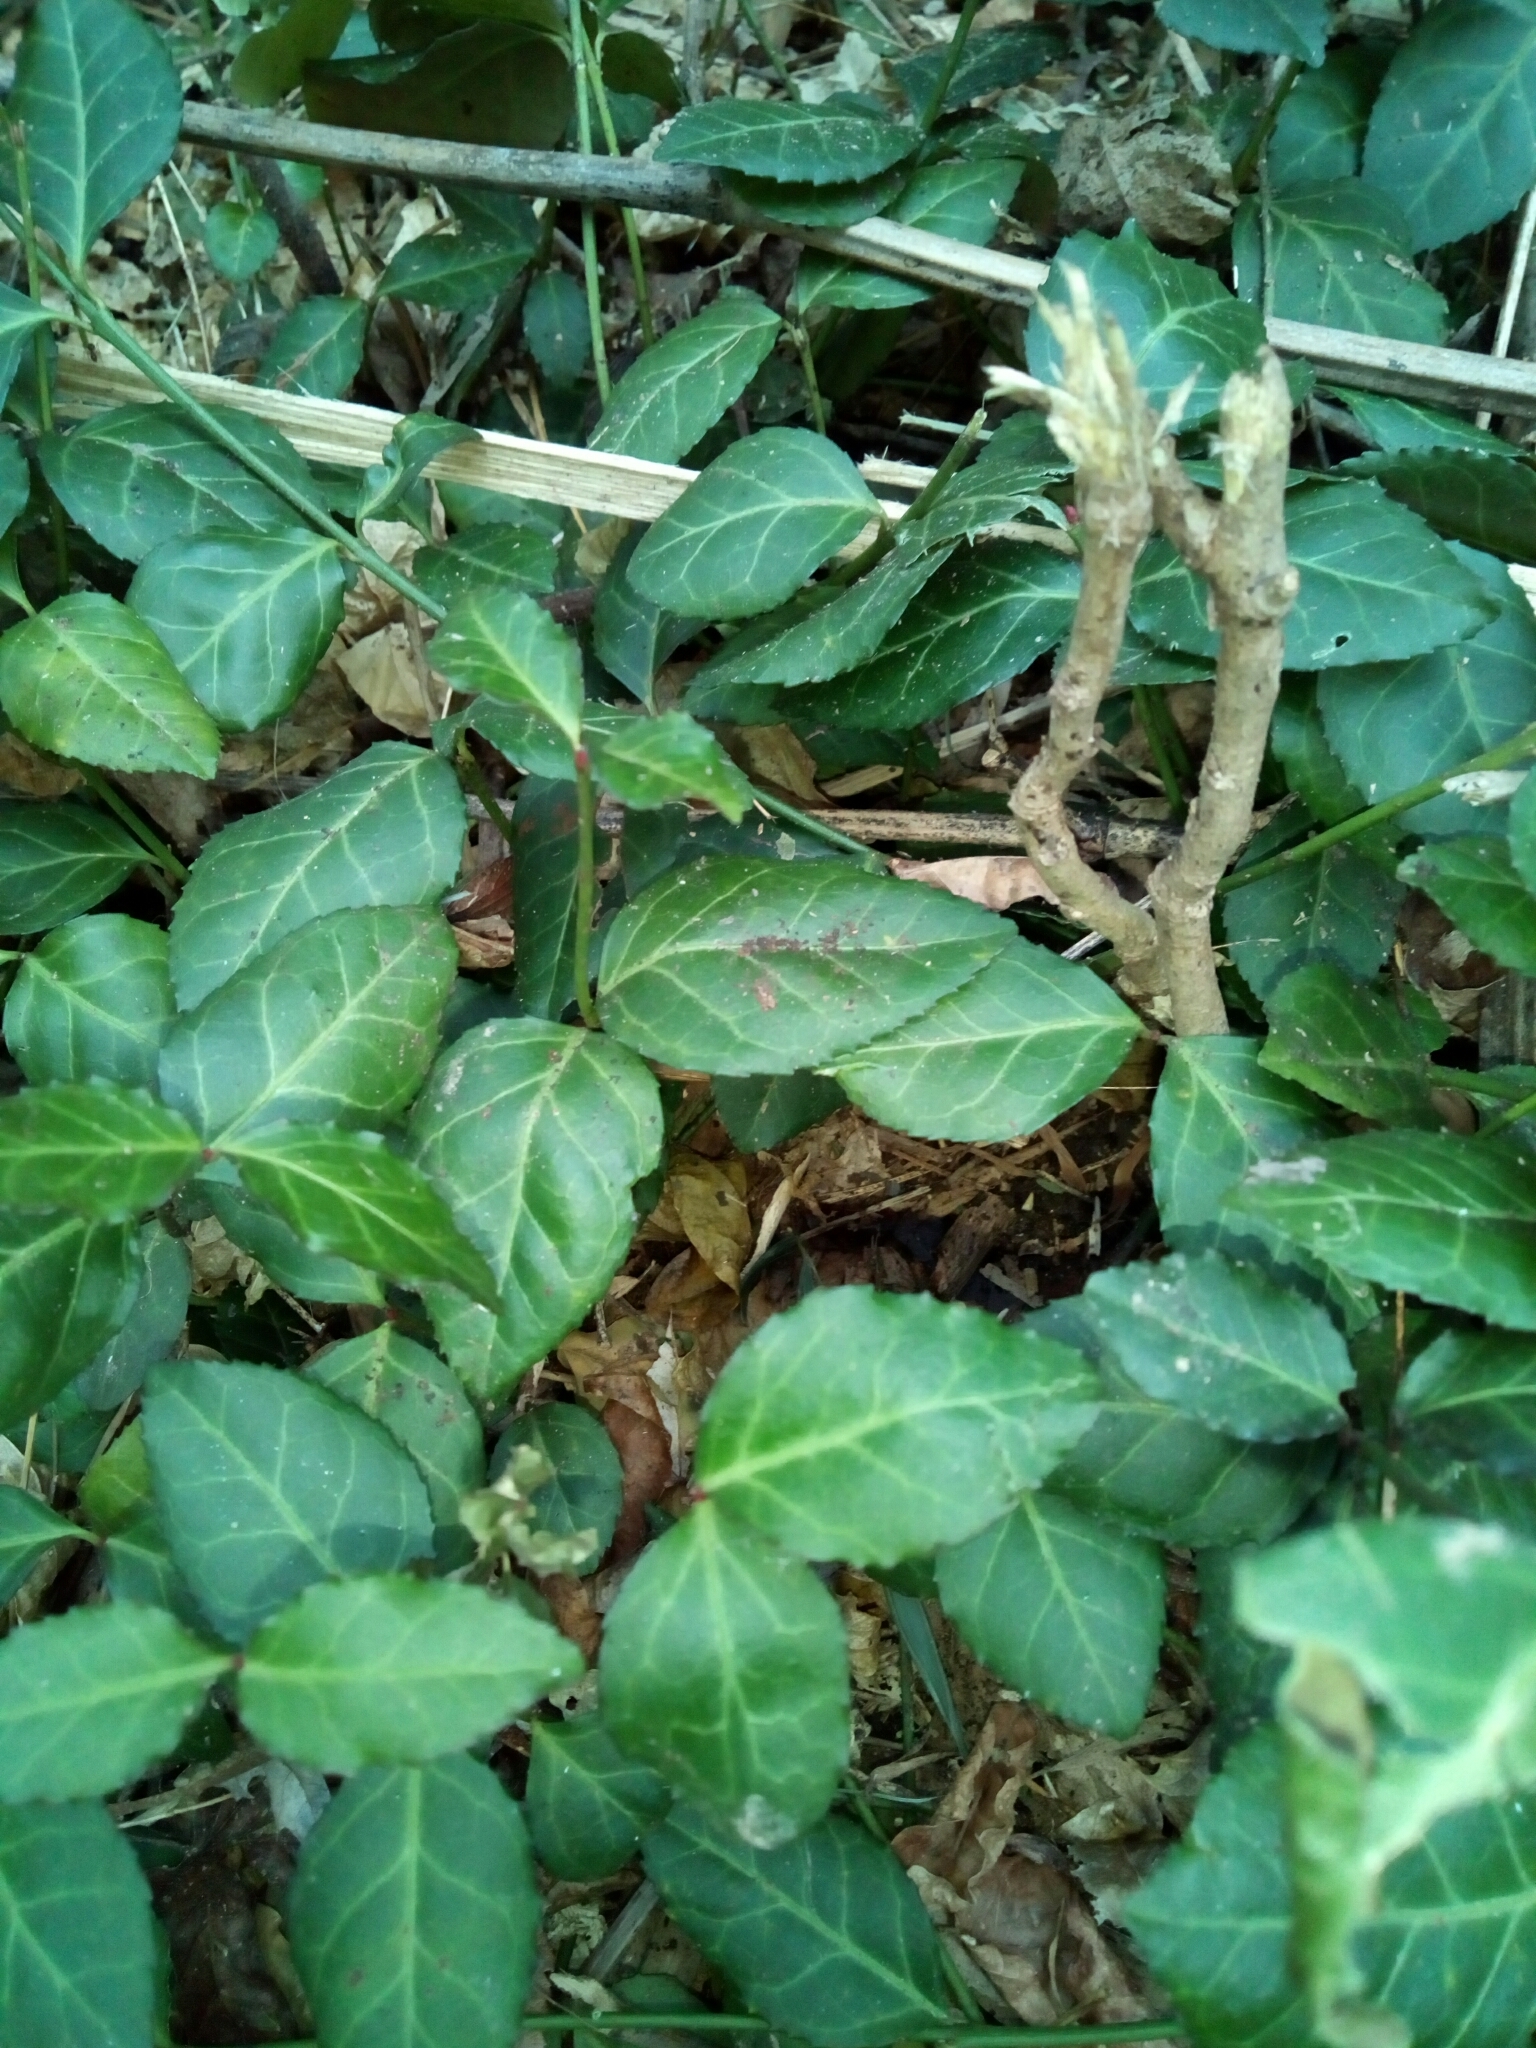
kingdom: Plantae
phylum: Tracheophyta
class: Magnoliopsida
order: Celastrales
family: Celastraceae
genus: Euonymus
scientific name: Euonymus fortunei
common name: Climbing euonymus
